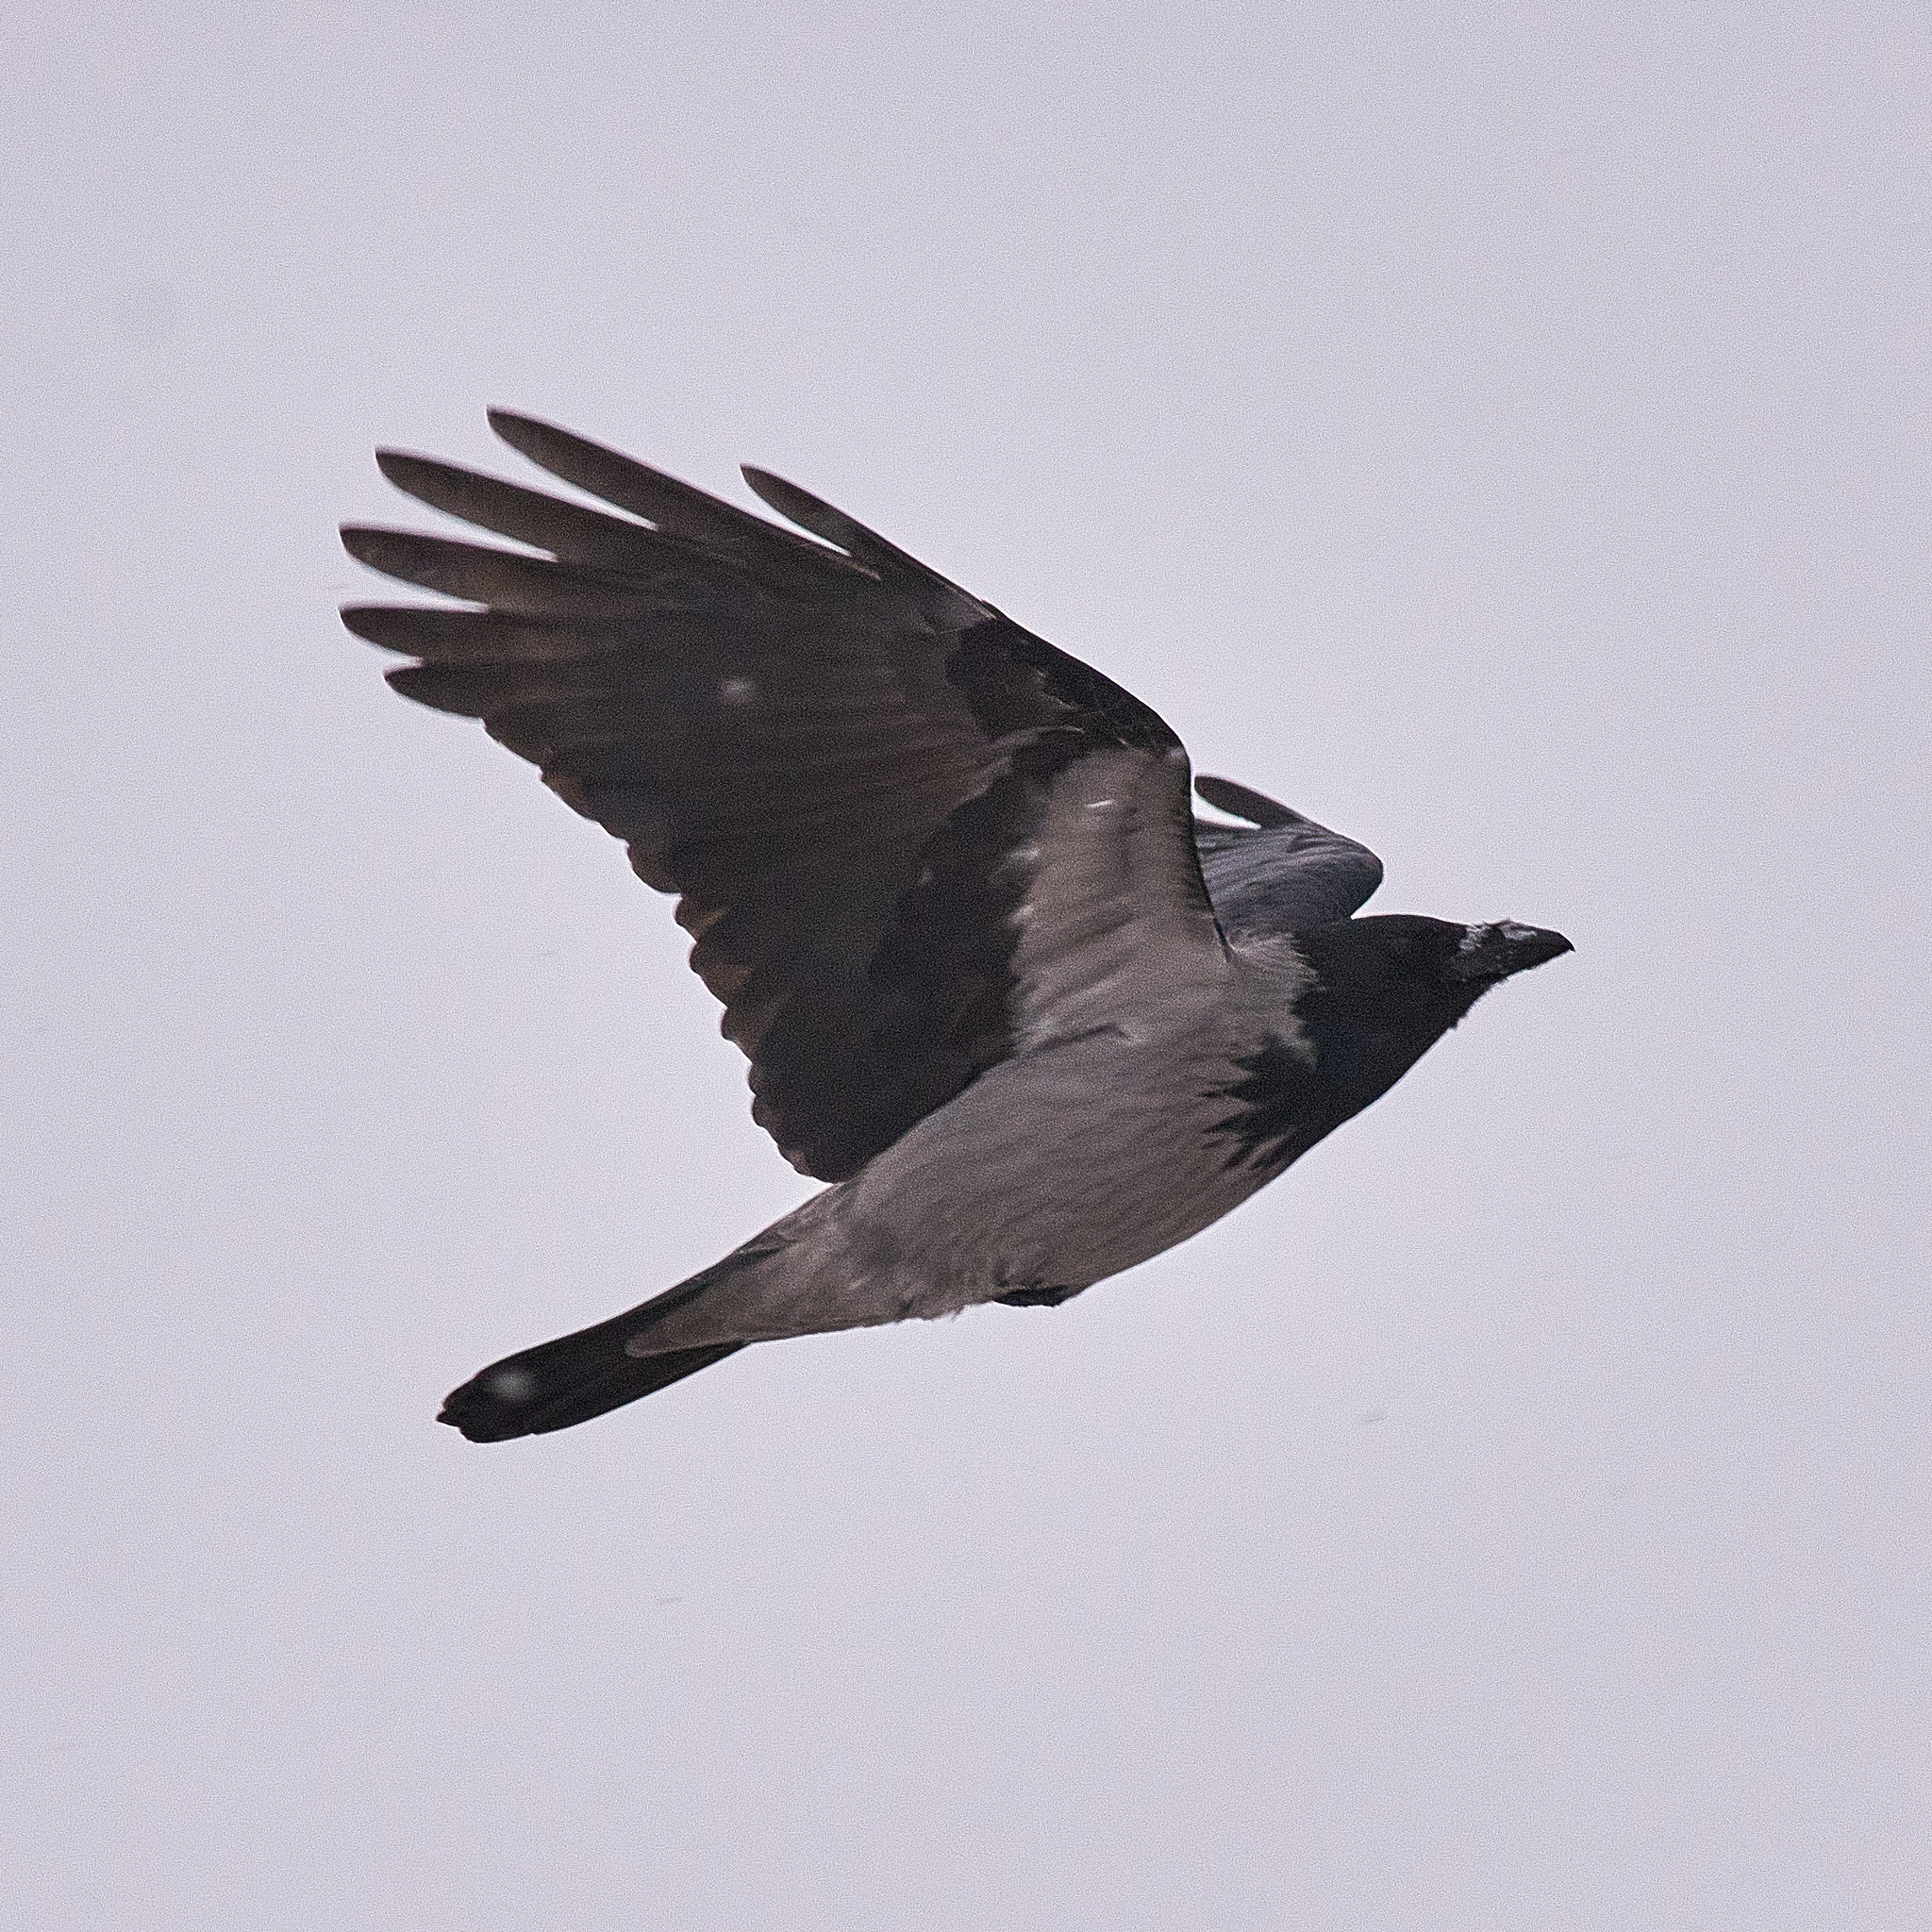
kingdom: Animalia
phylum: Chordata
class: Aves
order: Passeriformes
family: Corvidae
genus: Corvus
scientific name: Corvus cornix
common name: Hooded crow
